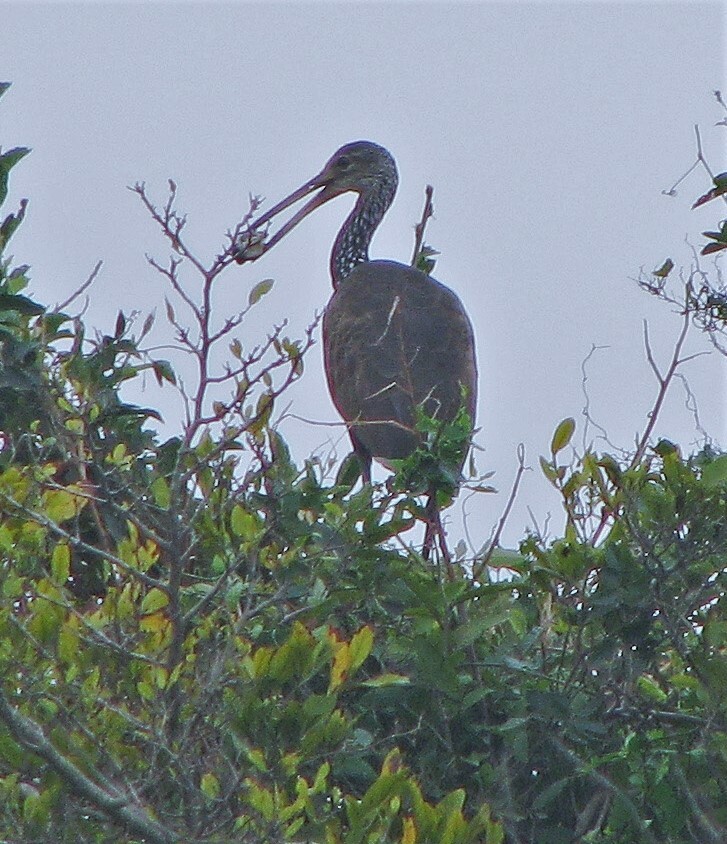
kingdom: Animalia
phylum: Chordata
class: Aves
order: Gruiformes
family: Aramidae
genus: Aramus
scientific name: Aramus guarauna
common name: Limpkin
